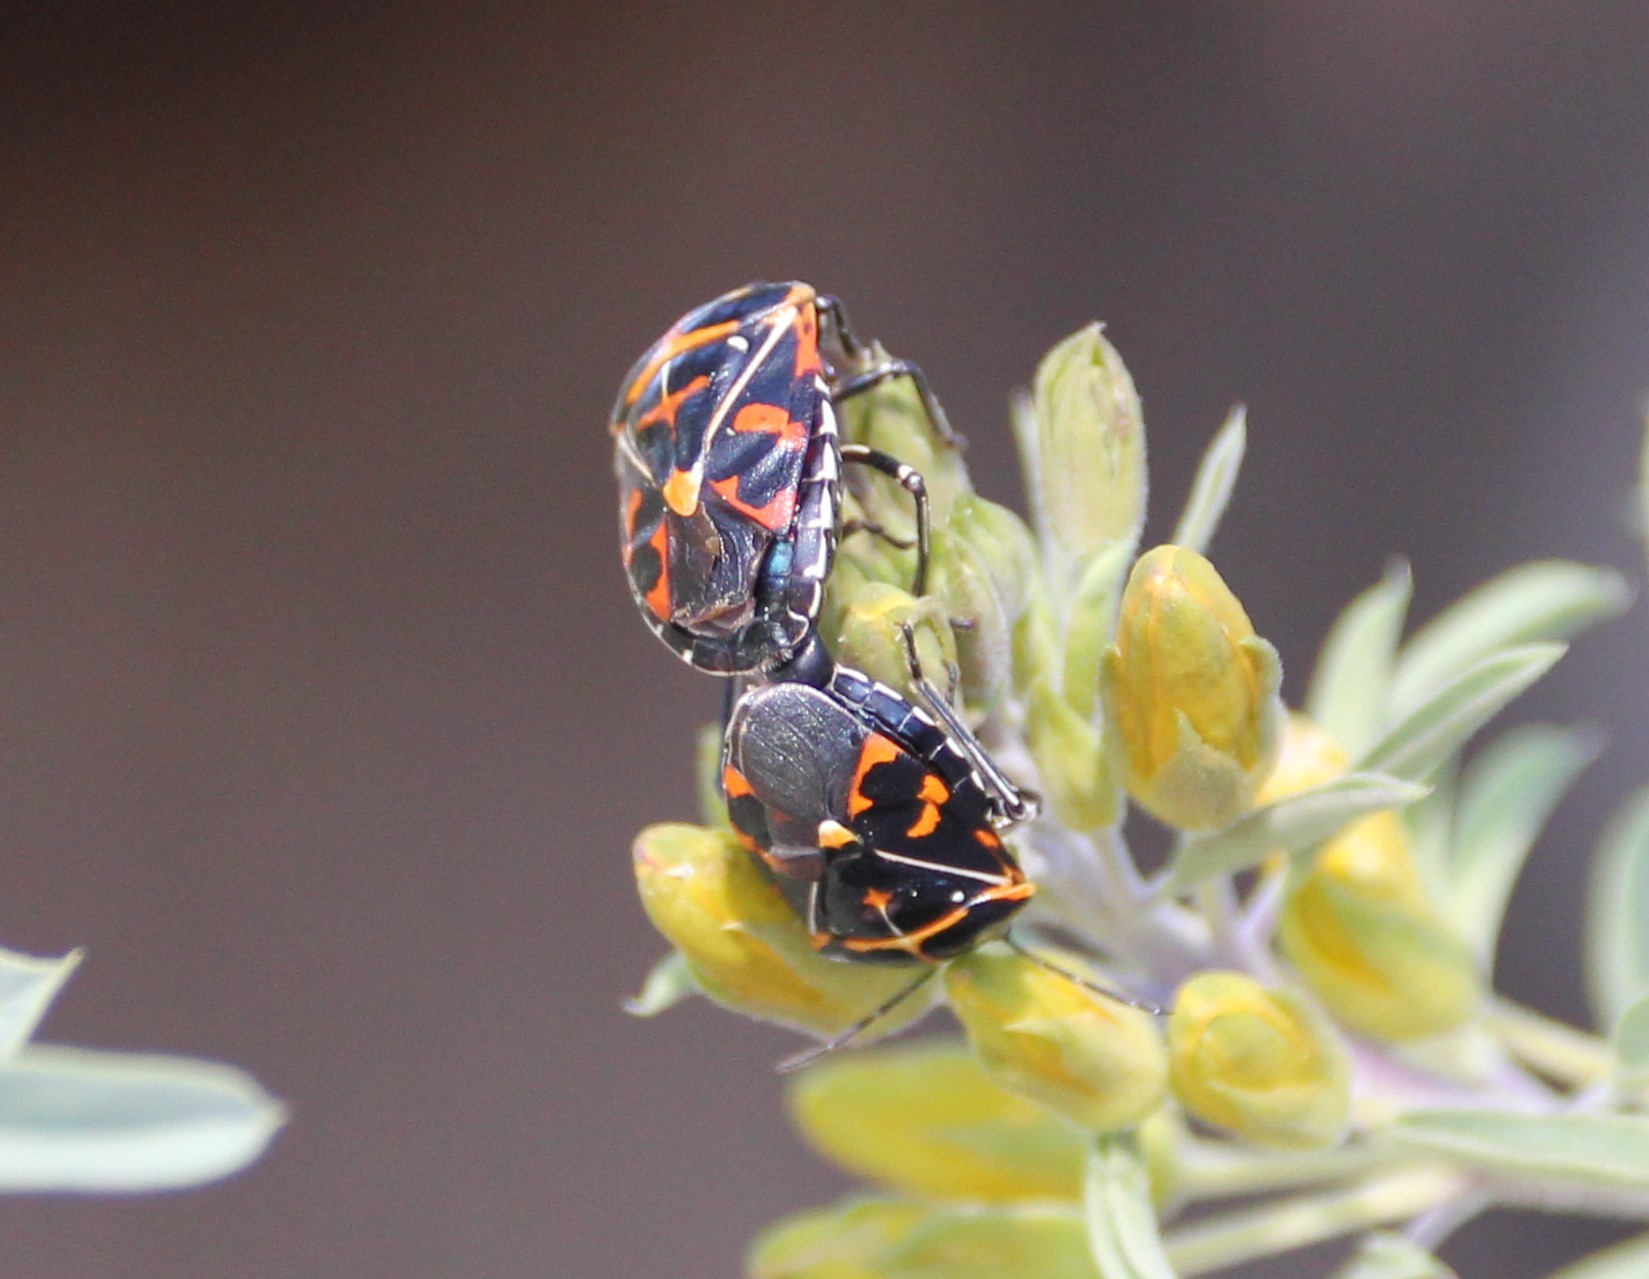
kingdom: Animalia
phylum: Arthropoda
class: Insecta
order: Hemiptera
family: Pentatomidae
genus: Murgantia
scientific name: Murgantia histrionica
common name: Harlequin bug
